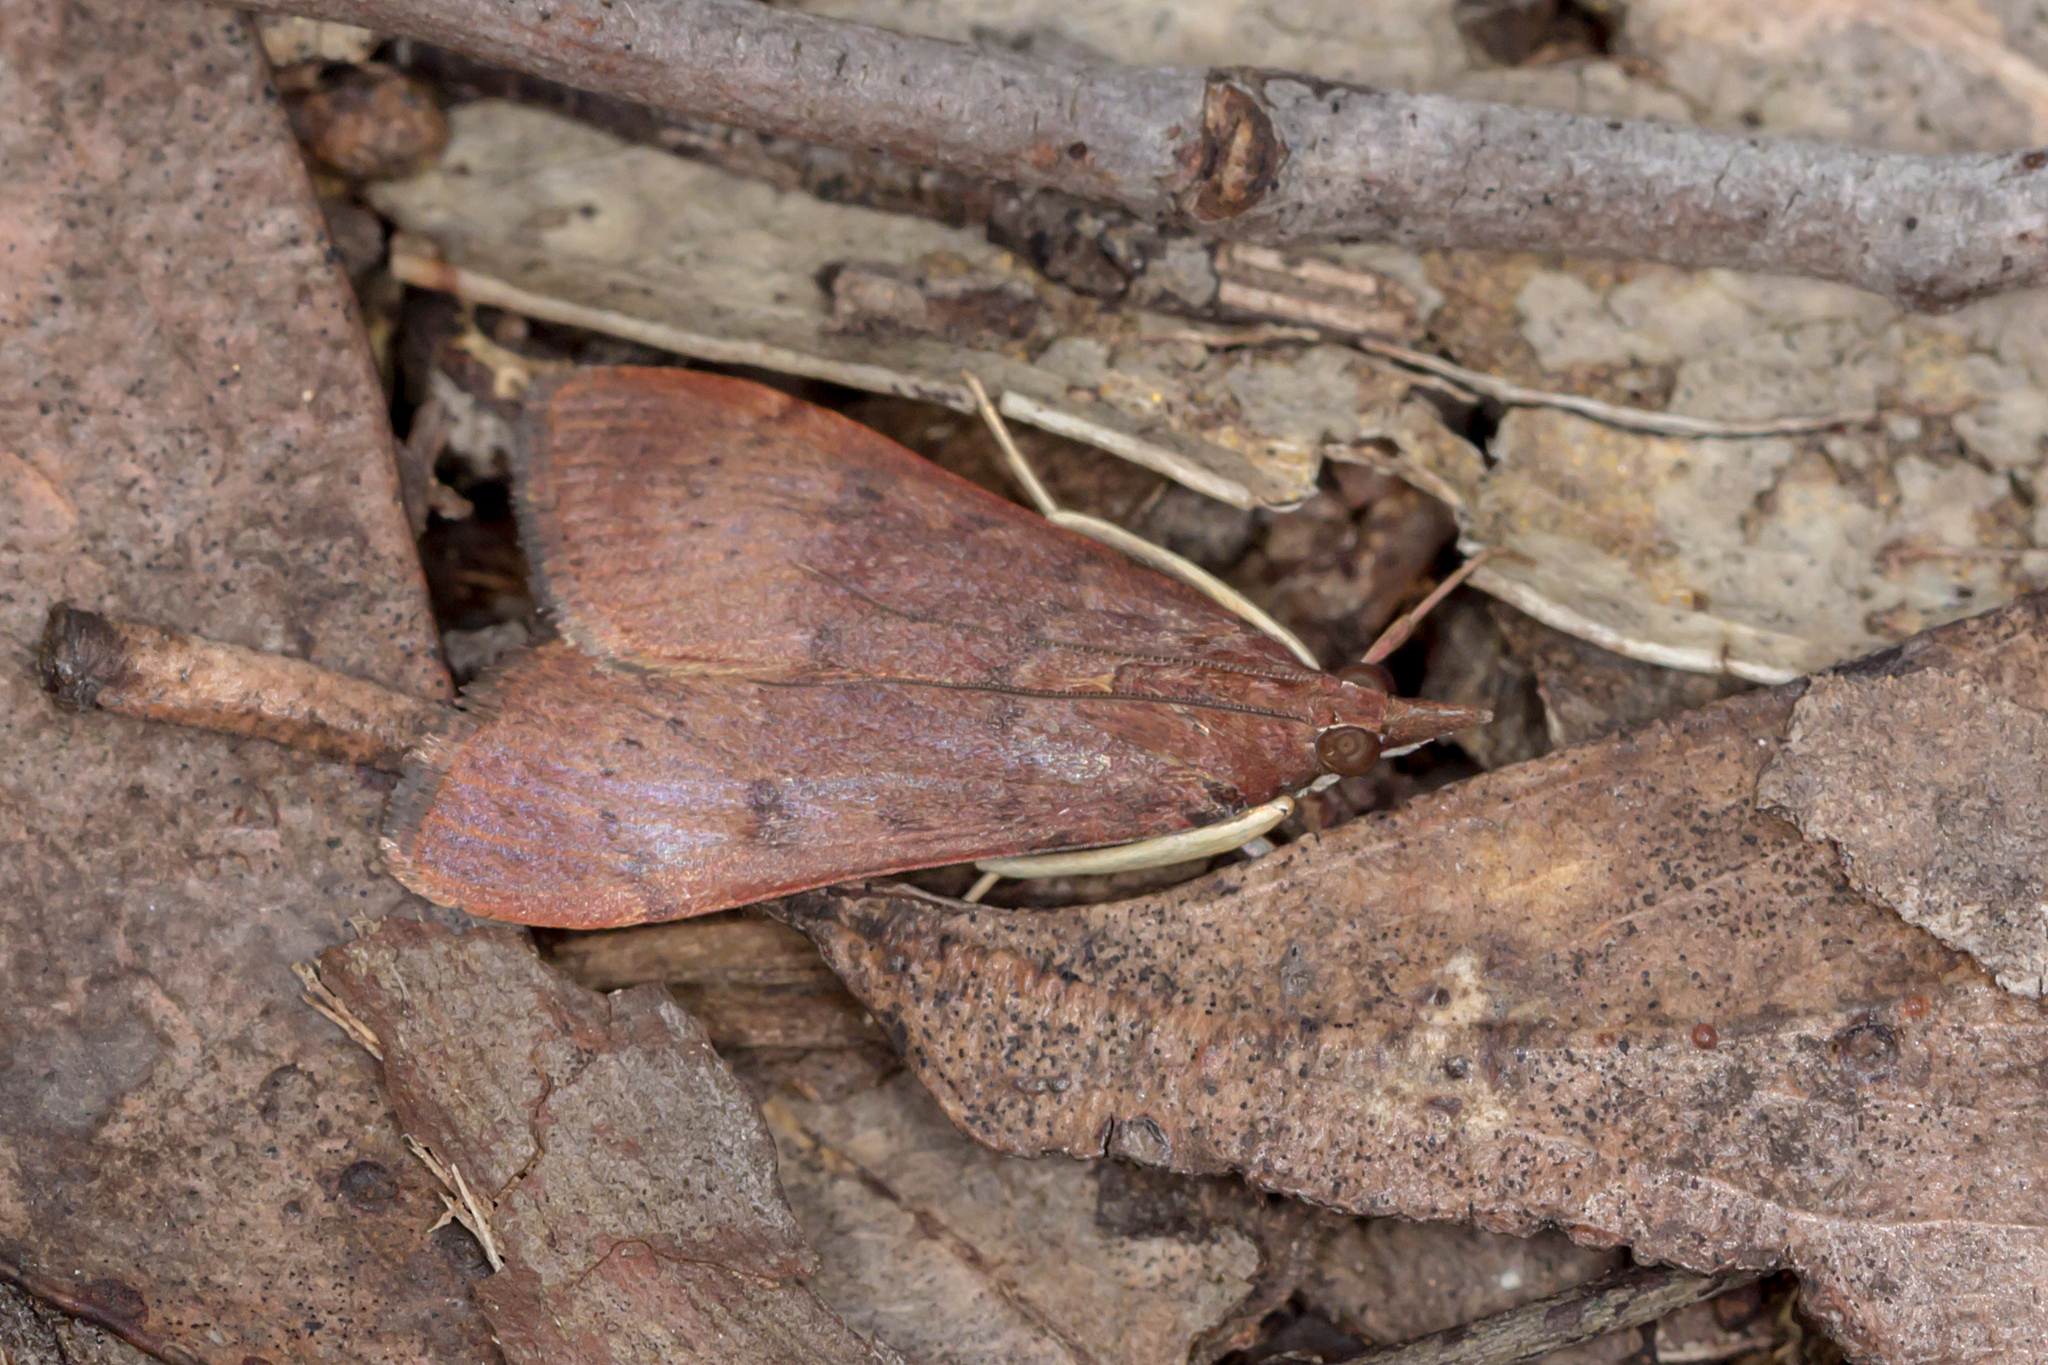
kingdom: Animalia
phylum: Arthropoda
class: Insecta
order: Lepidoptera
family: Crambidae
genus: Uresiphita
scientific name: Uresiphita ornithopteralis
